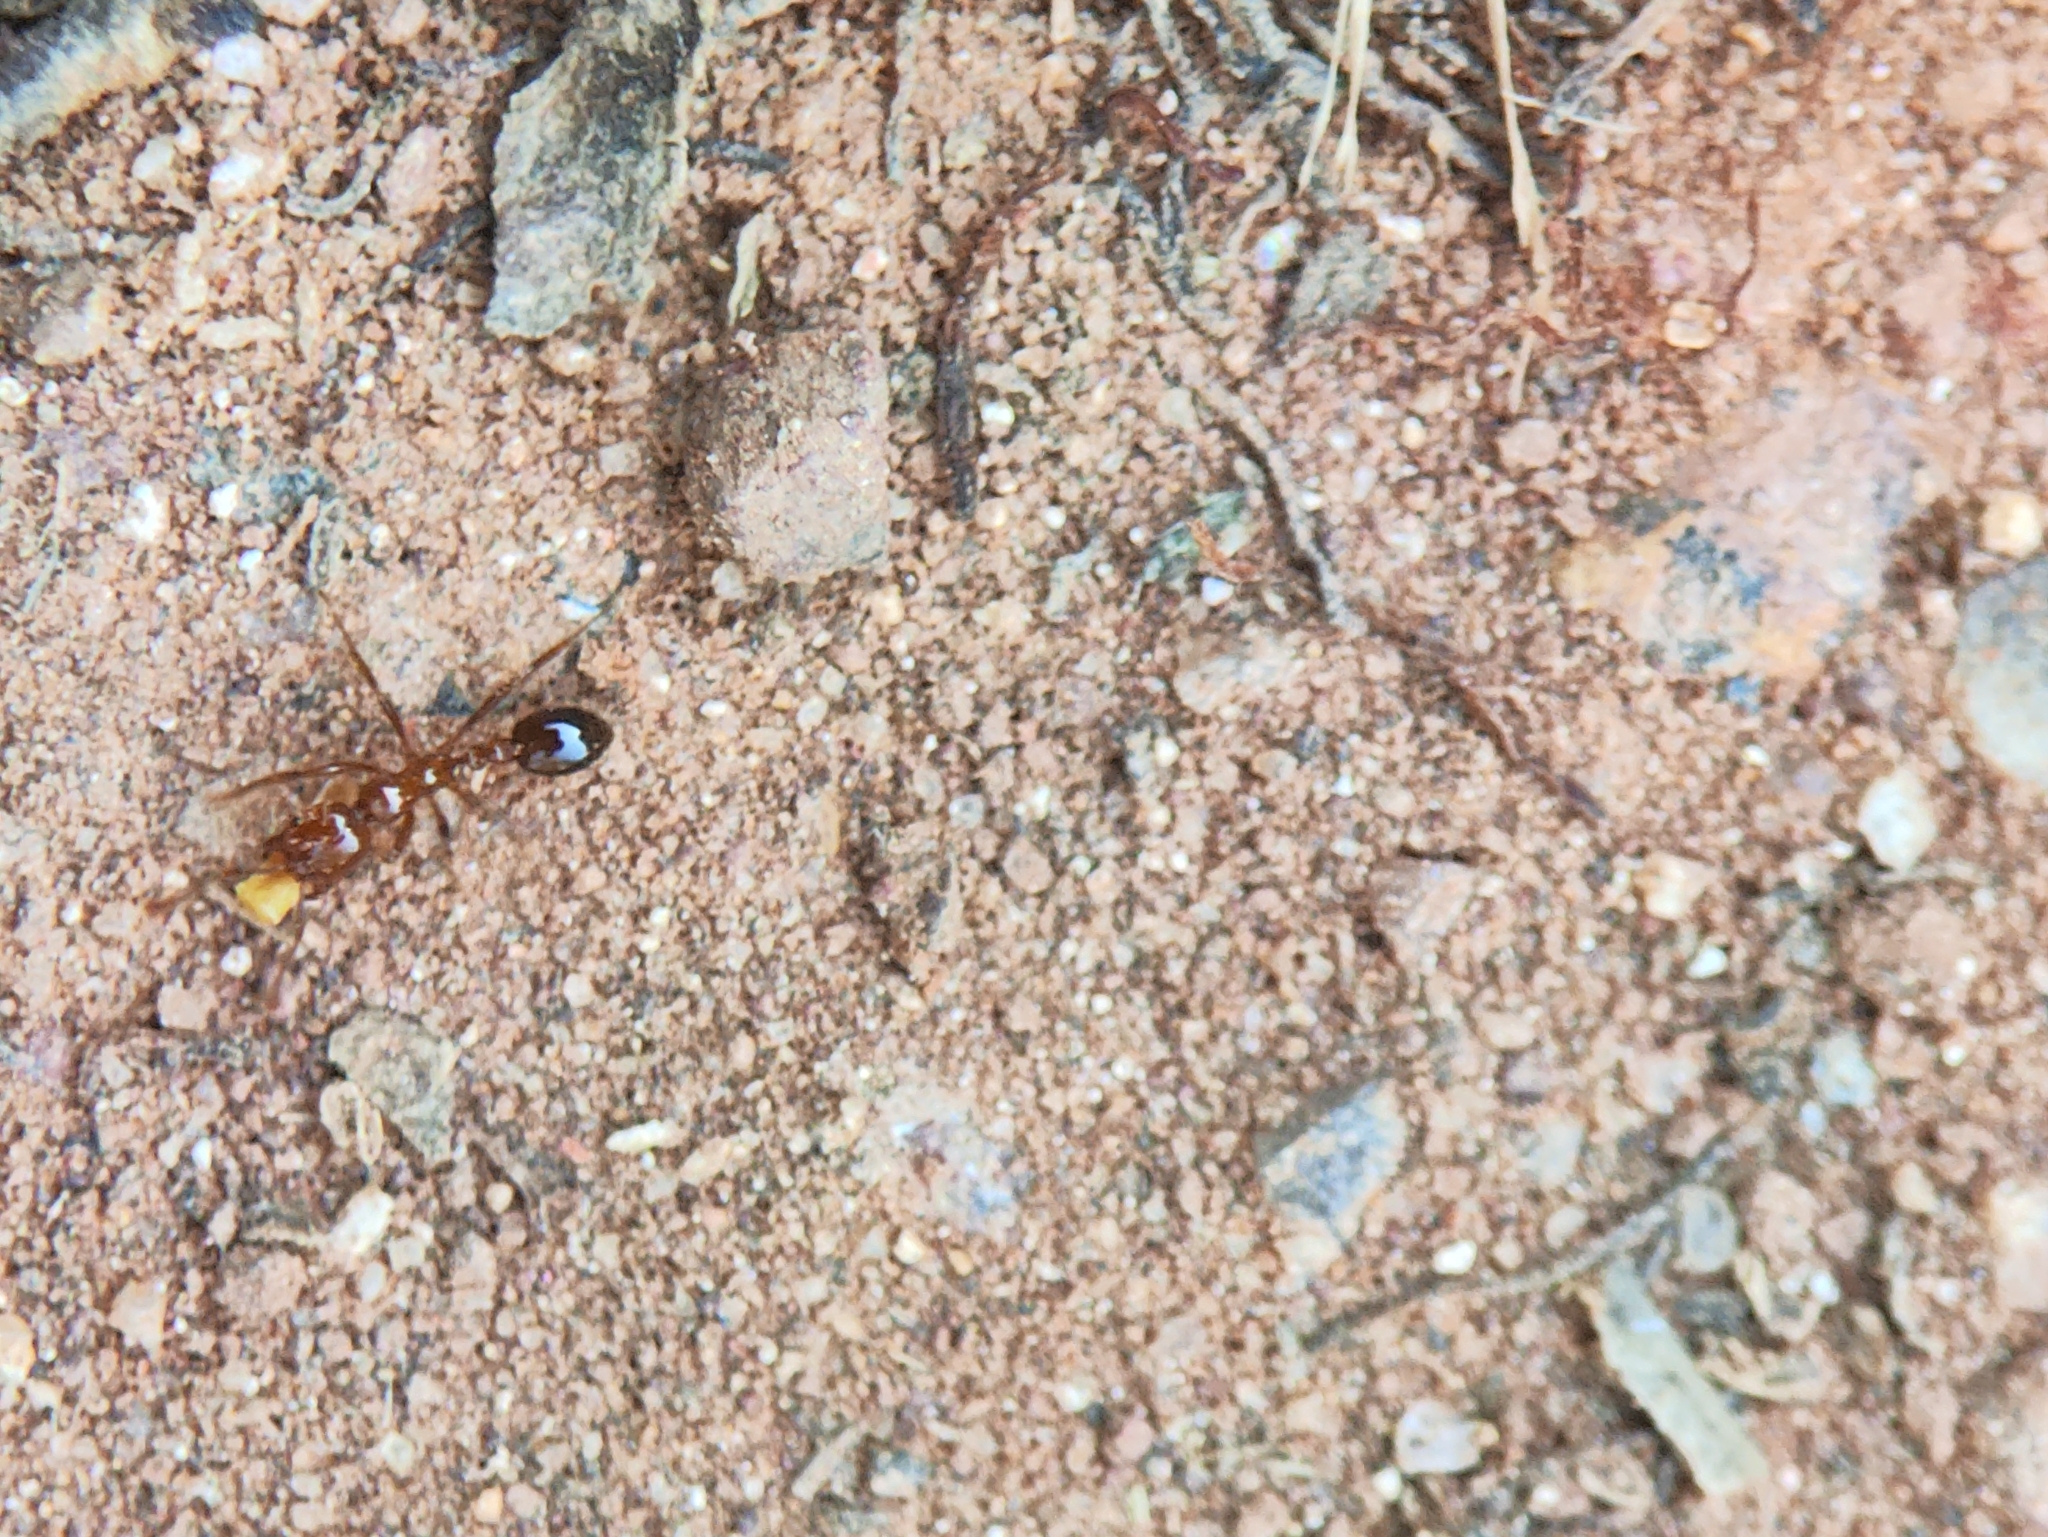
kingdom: Animalia
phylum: Arthropoda
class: Insecta
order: Hymenoptera
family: Formicidae
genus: Solenopsis
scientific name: Solenopsis geminata
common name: Tropical fire ant
